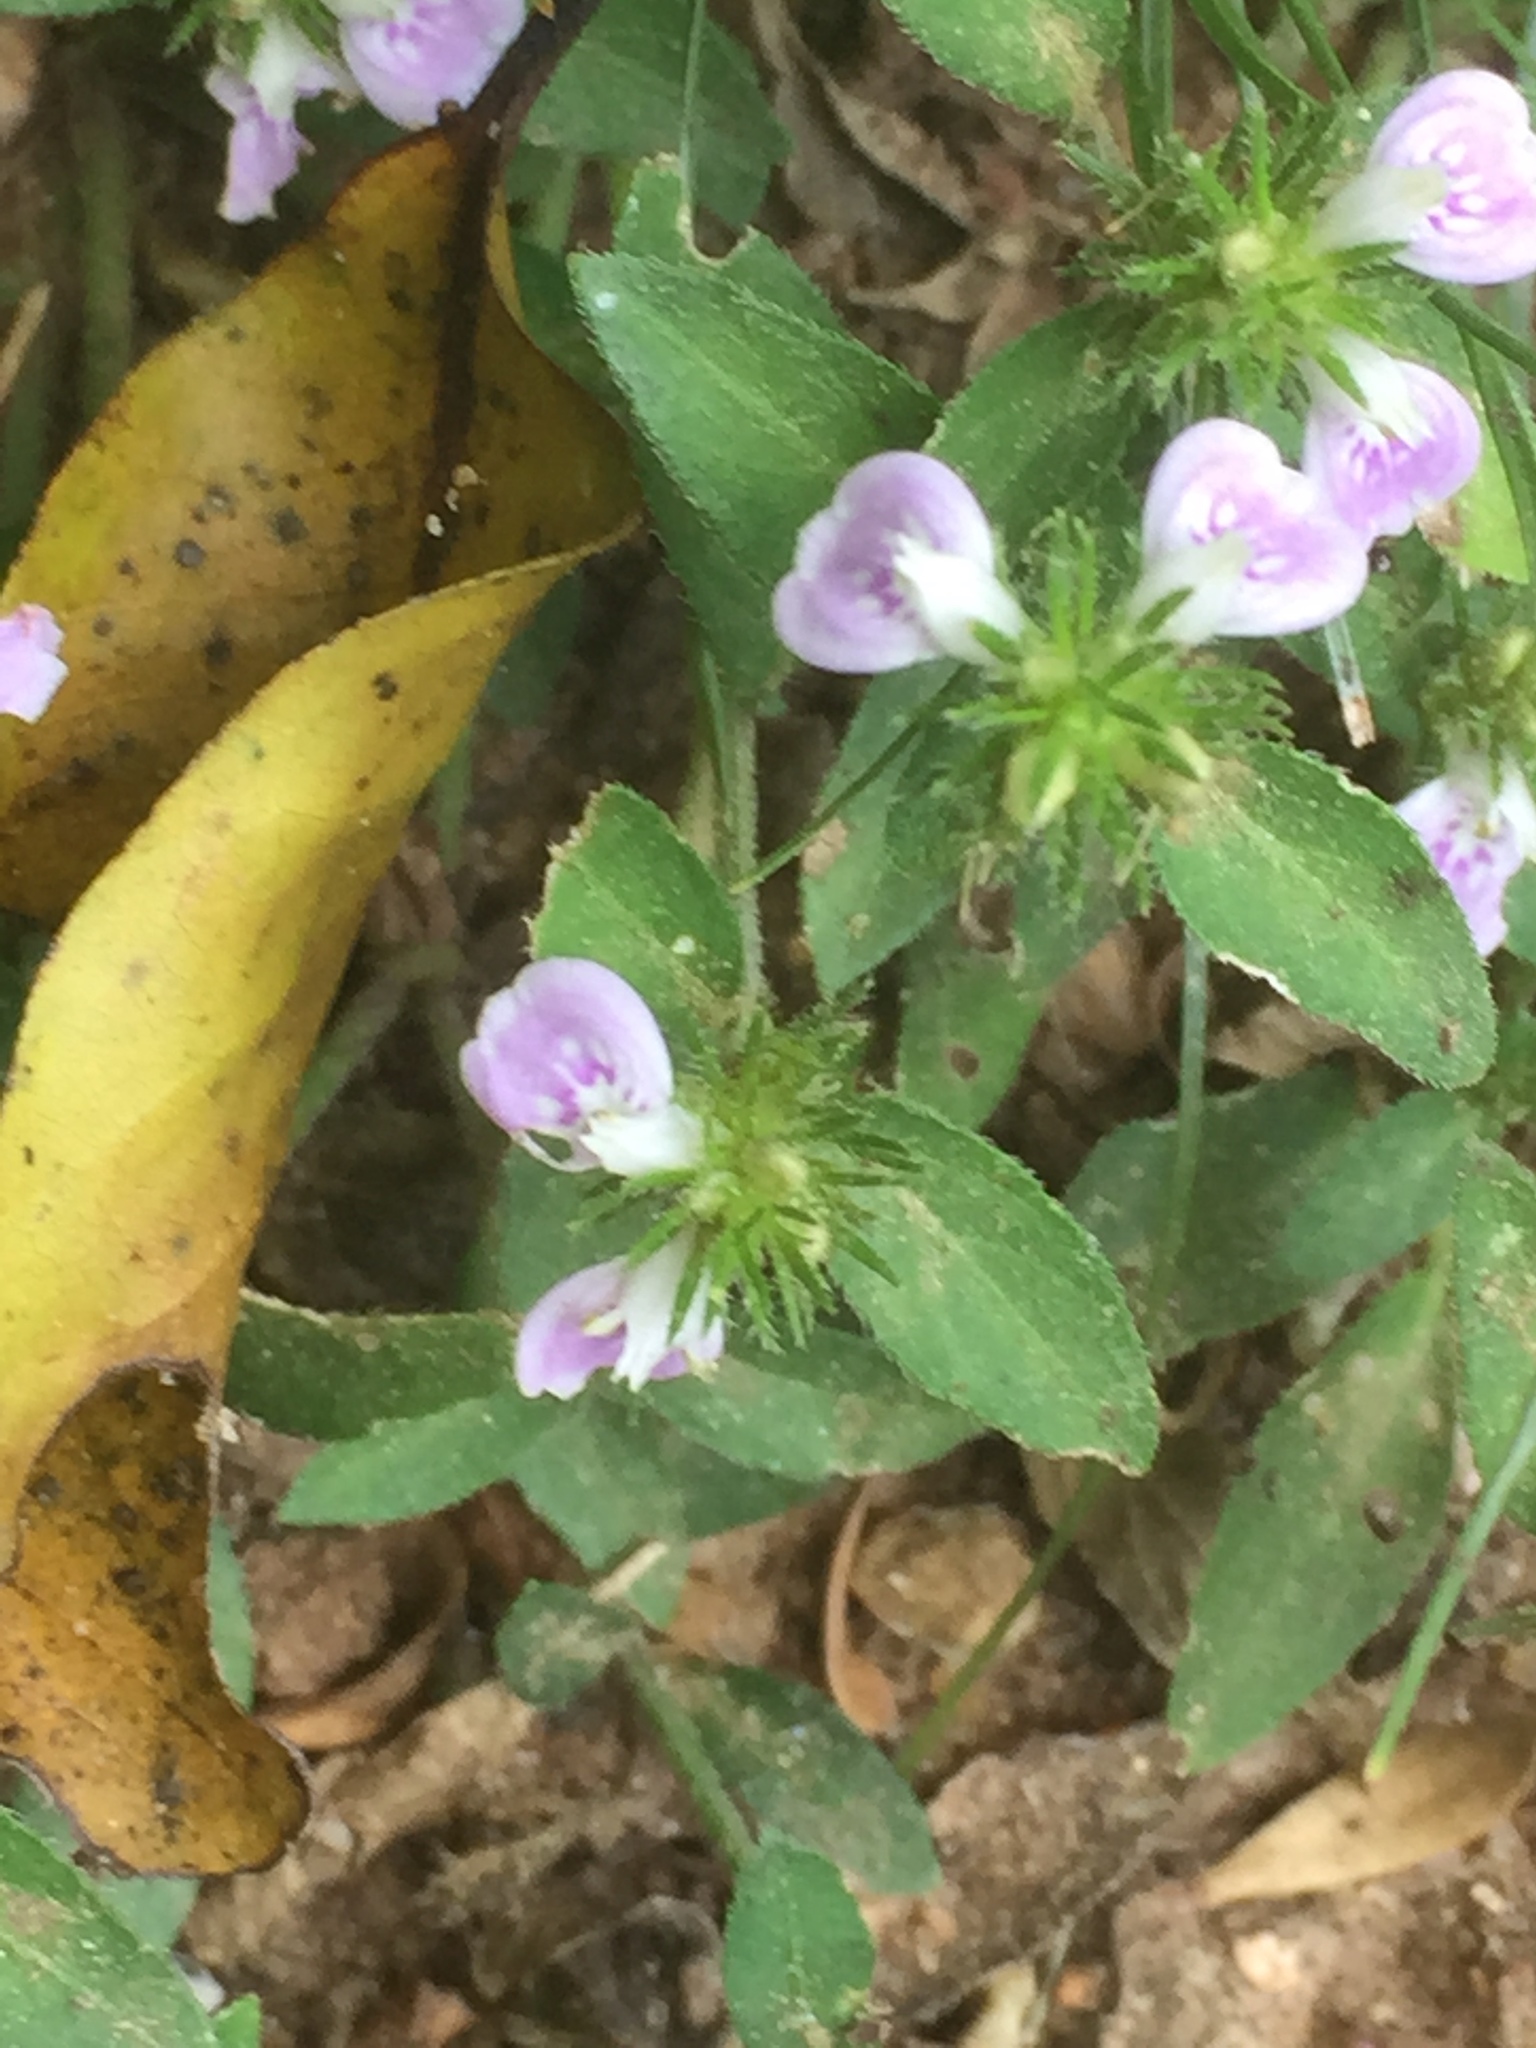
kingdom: Plantae
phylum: Tracheophyta
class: Magnoliopsida
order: Lamiales
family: Acanthaceae
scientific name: Acanthaceae
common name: Acanthaceae
